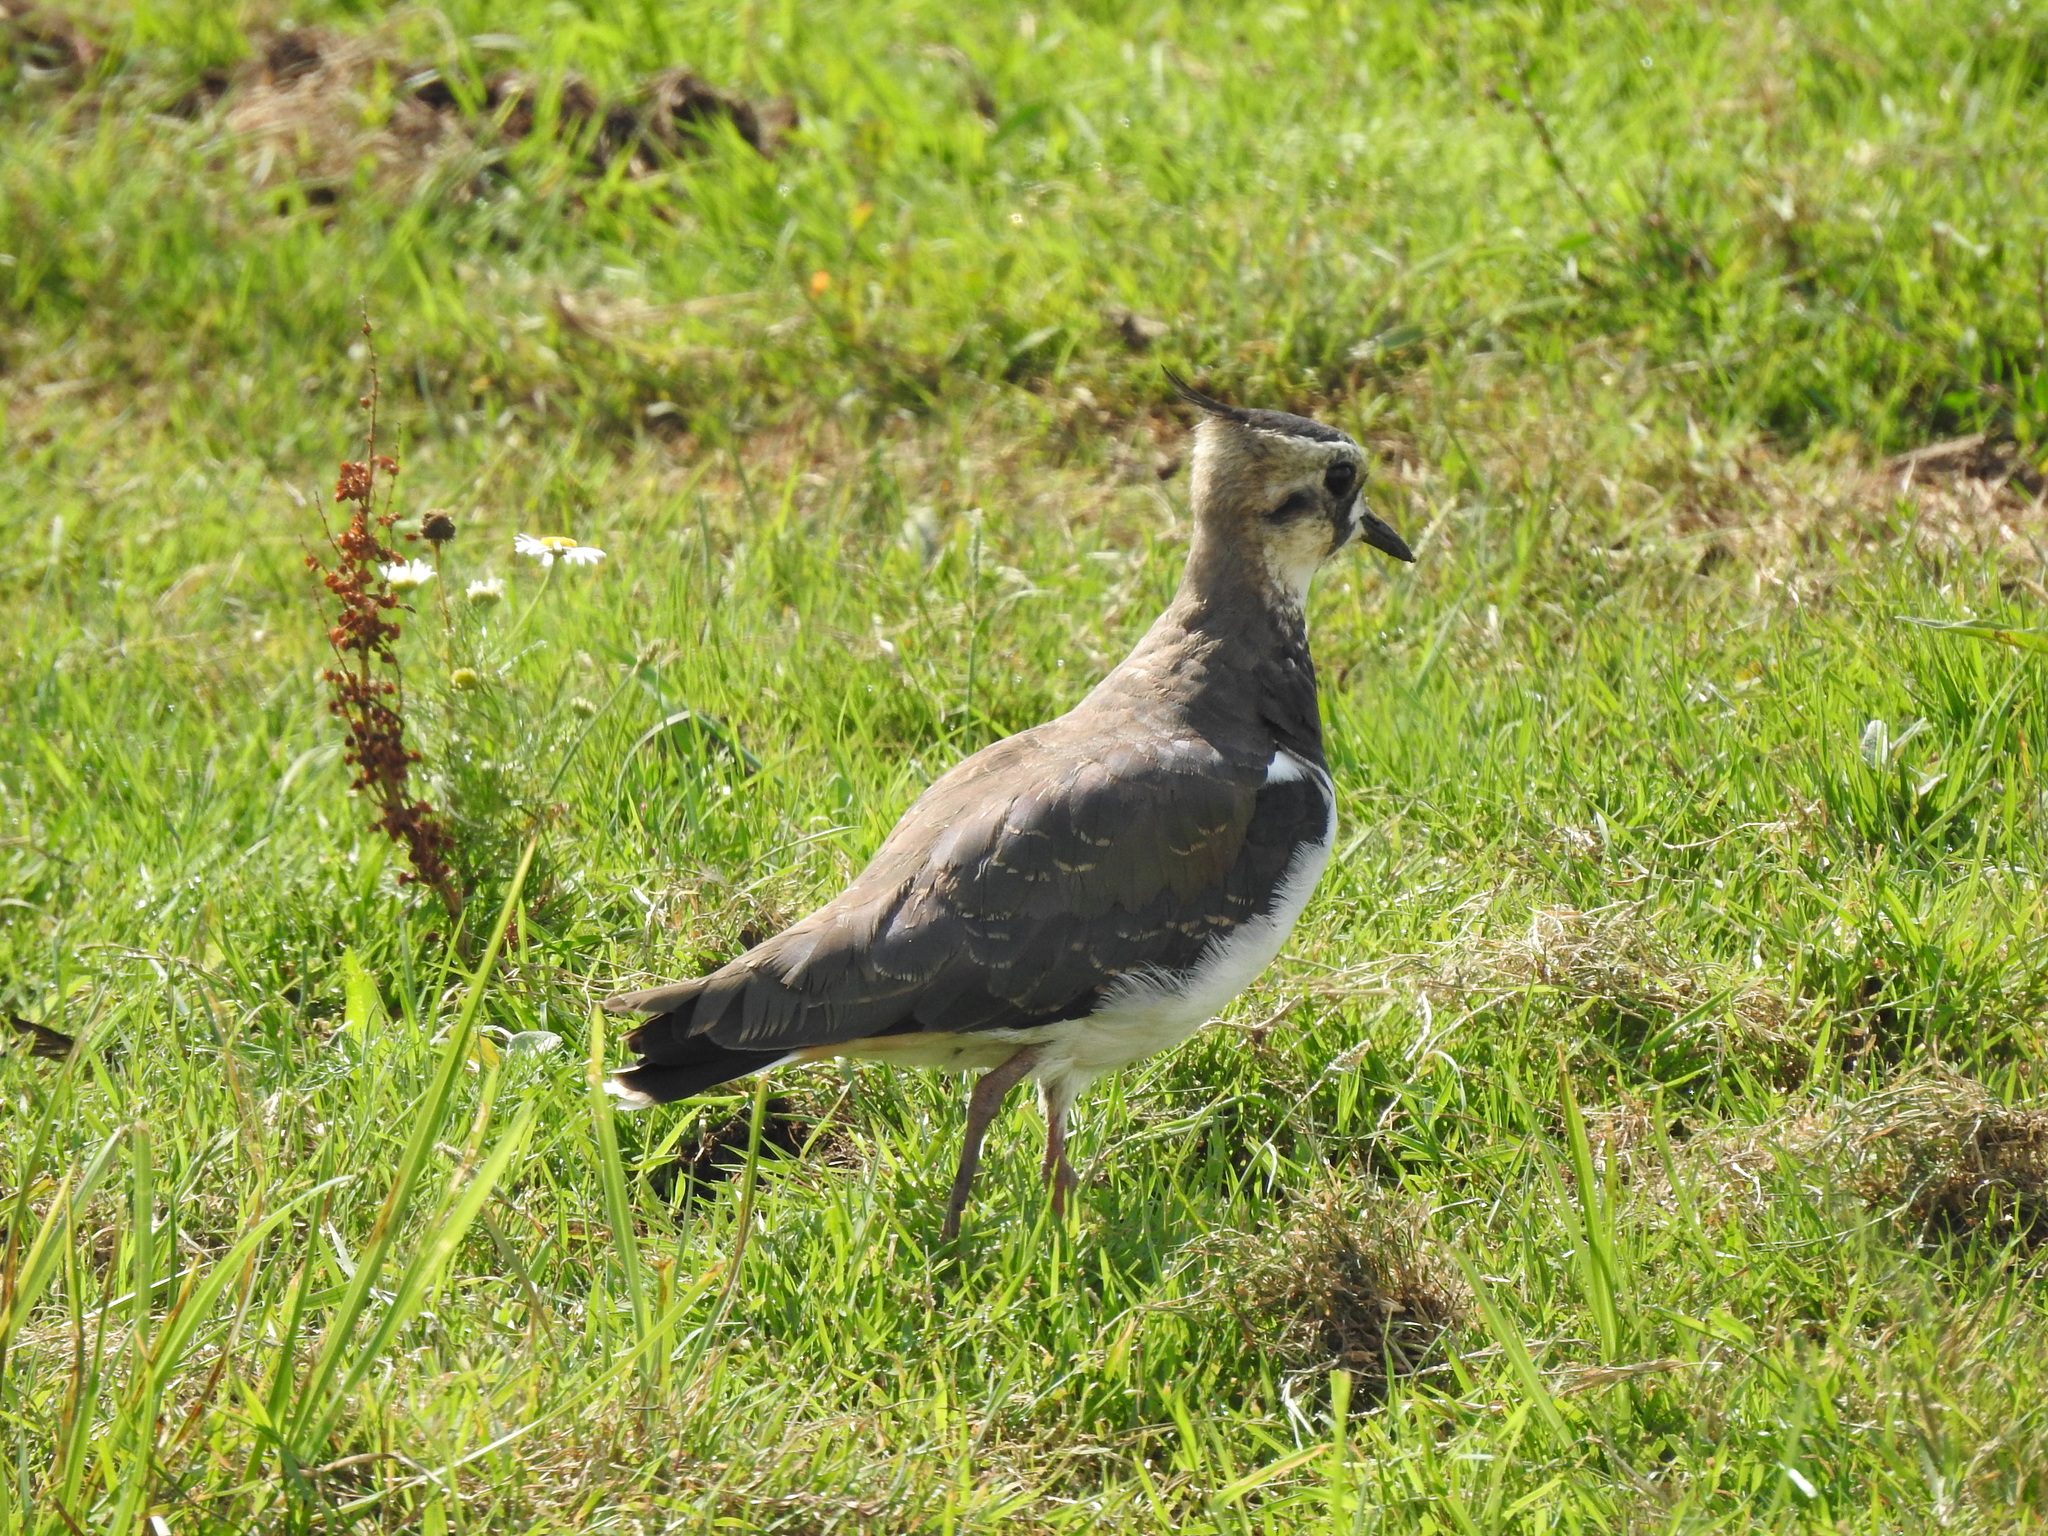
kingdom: Animalia
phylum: Chordata
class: Aves
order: Charadriiformes
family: Charadriidae
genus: Vanellus
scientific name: Vanellus vanellus
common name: Northern lapwing
